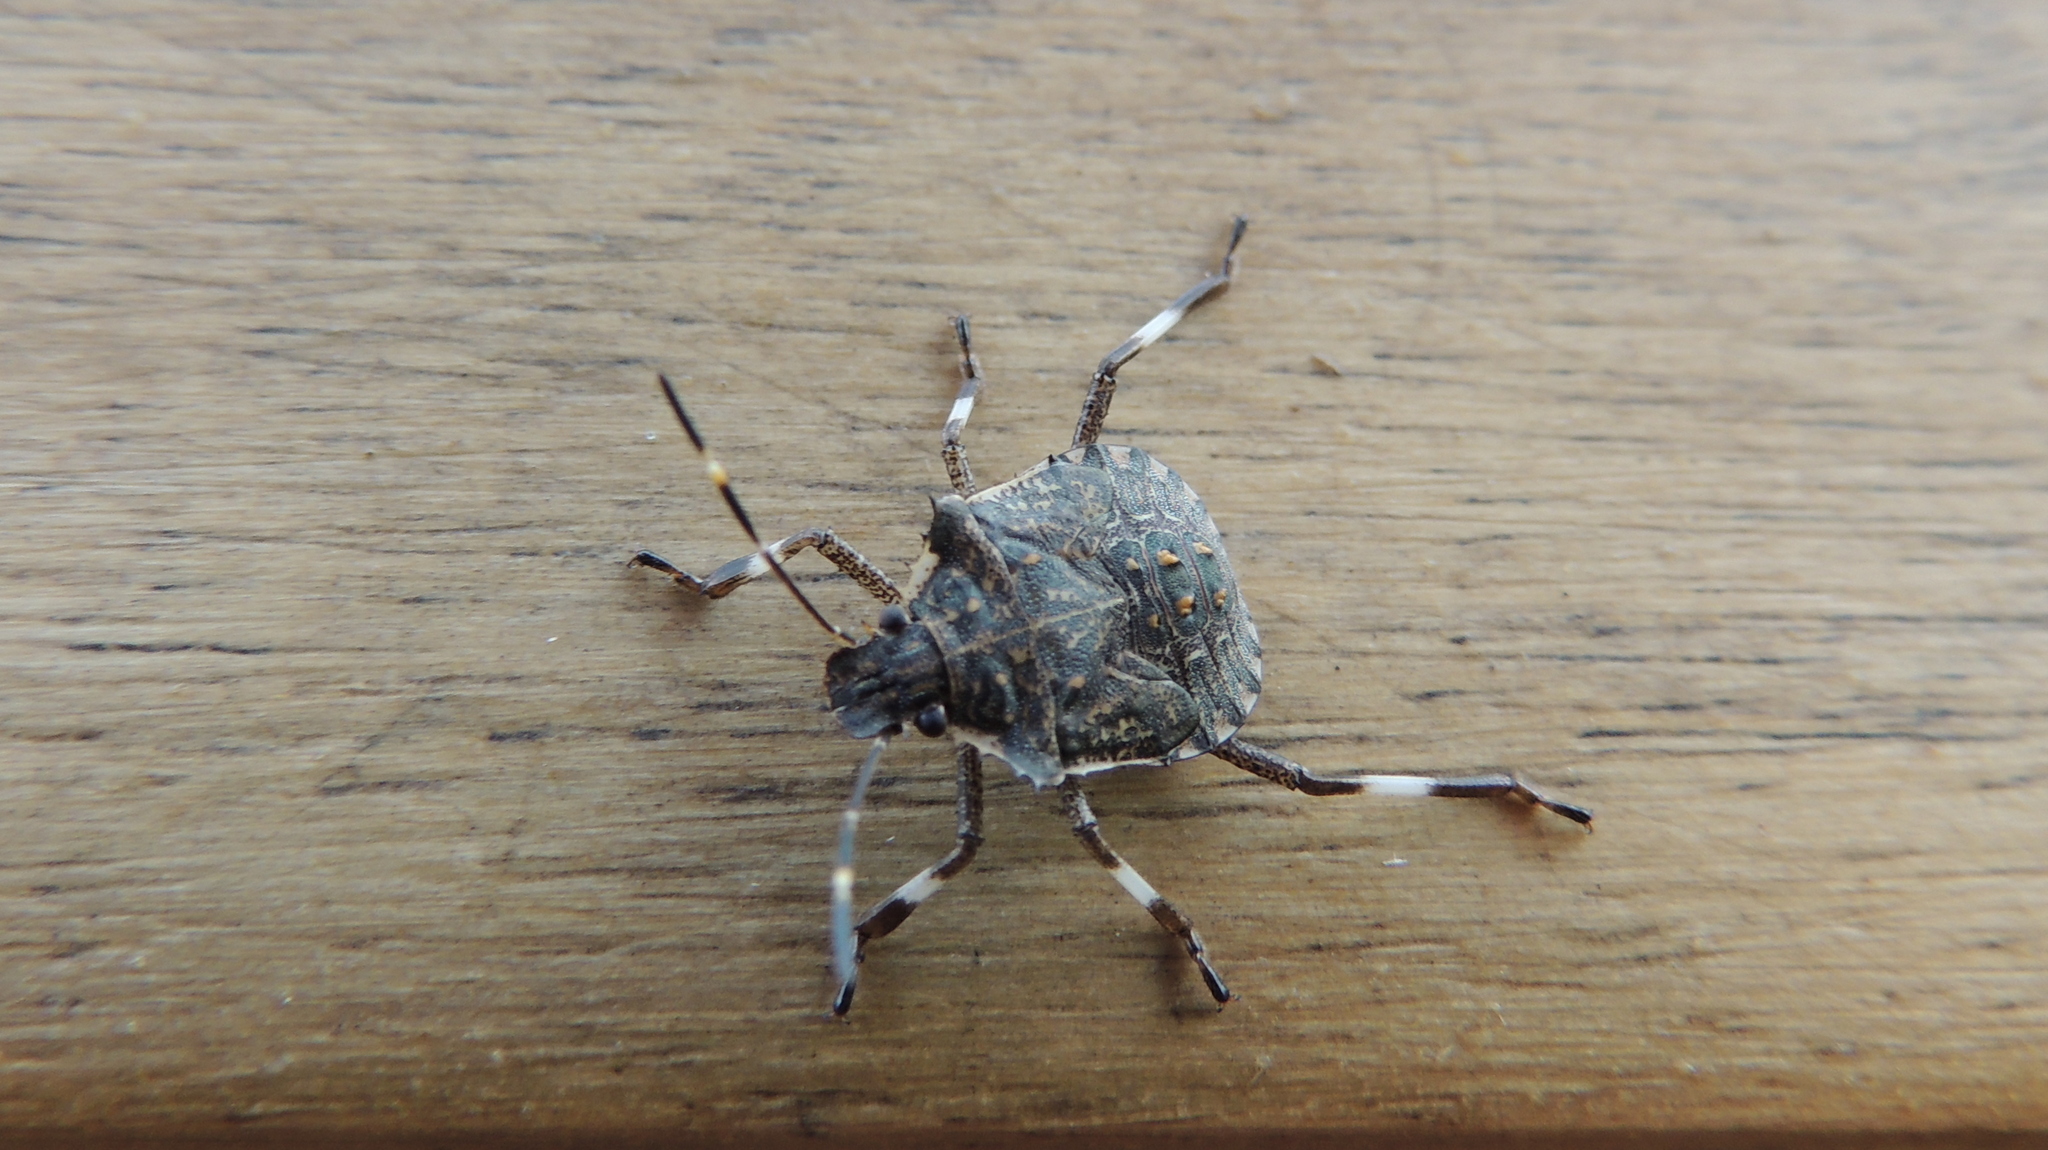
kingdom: Animalia
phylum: Arthropoda
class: Insecta
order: Hemiptera
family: Pentatomidae
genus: Halyomorpha
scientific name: Halyomorpha halys
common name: Brown marmorated stink bug
